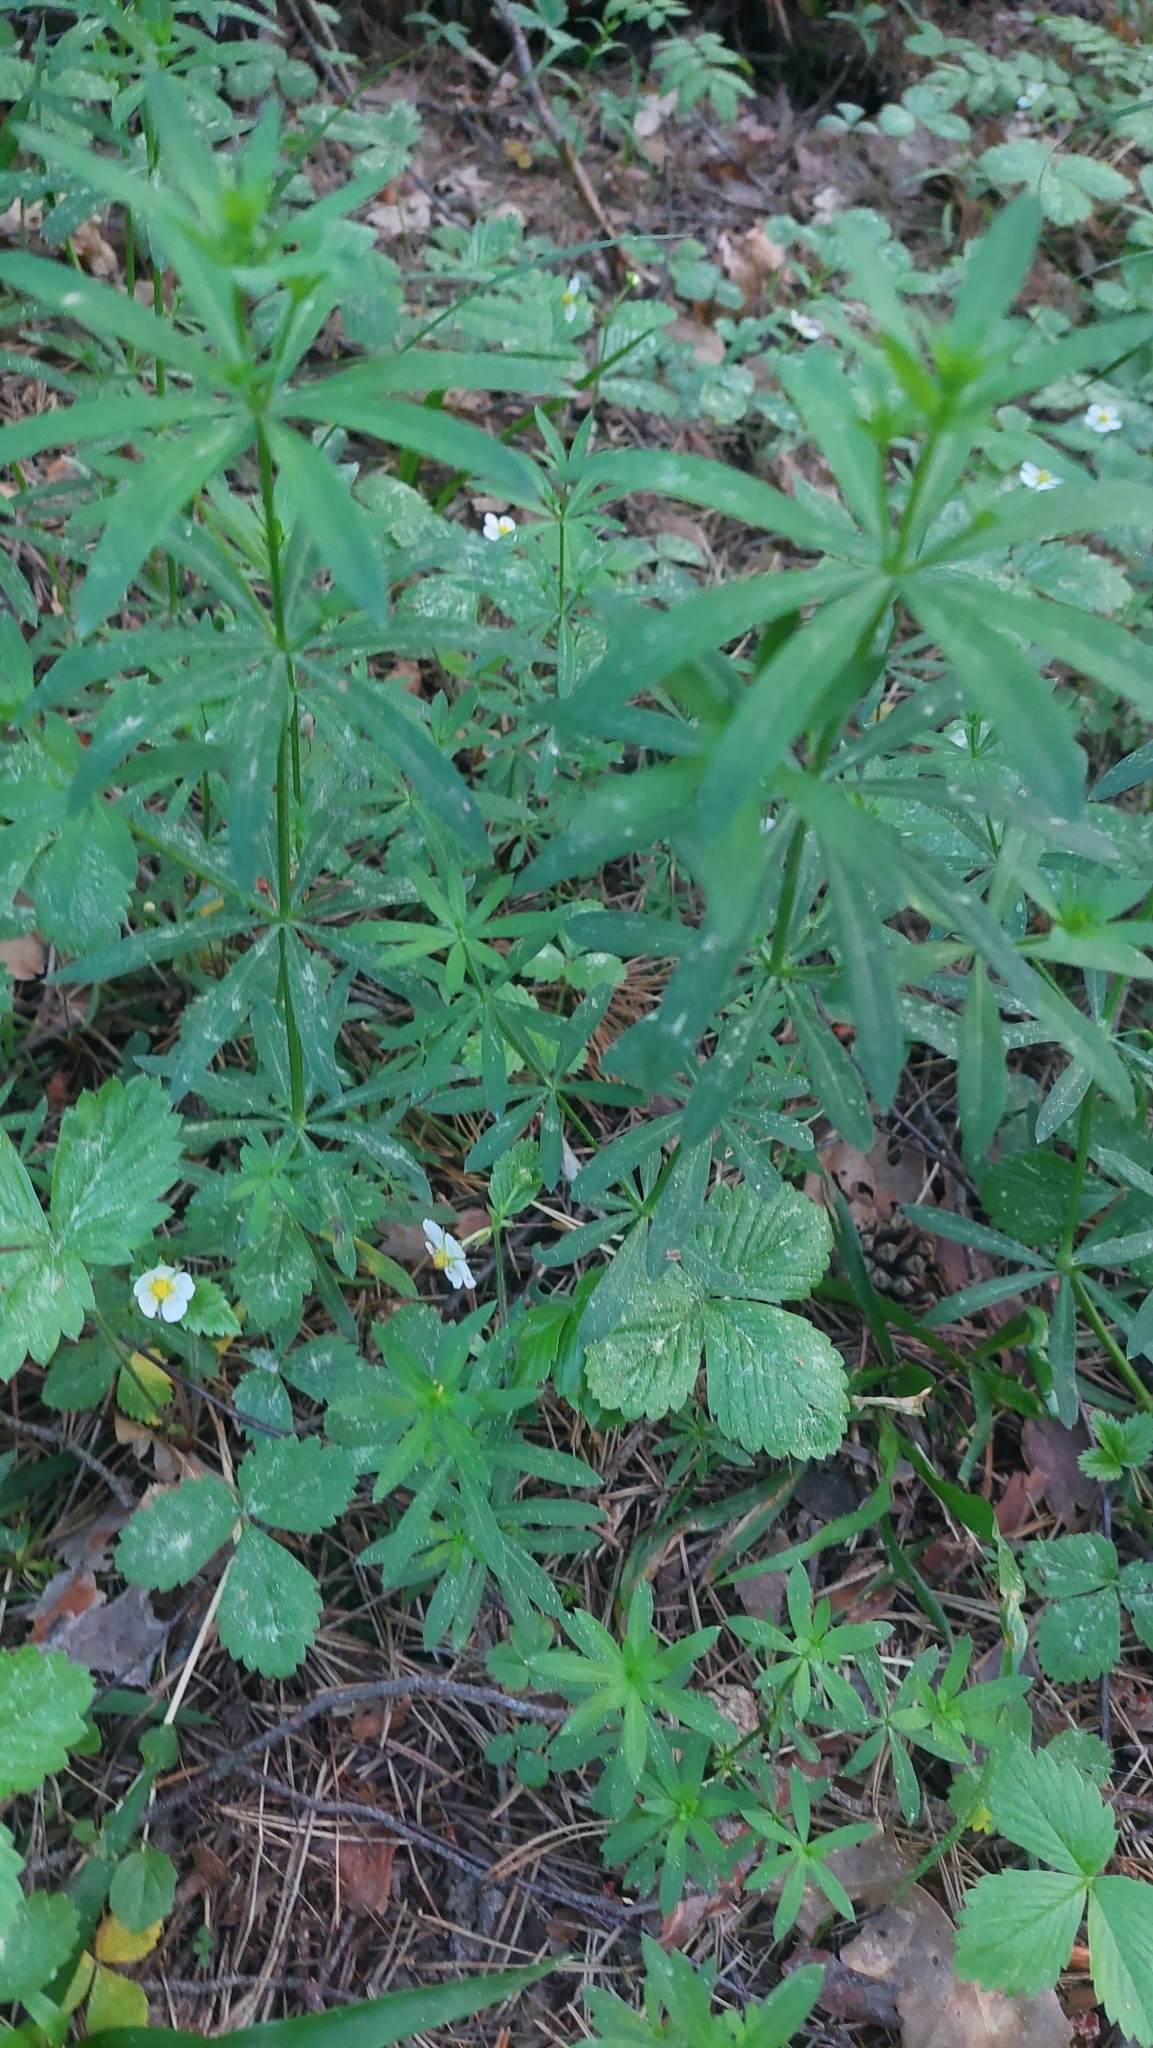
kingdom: Plantae
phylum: Tracheophyta
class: Magnoliopsida
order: Gentianales
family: Rubiaceae
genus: Galium
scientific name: Galium intermedium
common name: Bedstraw
